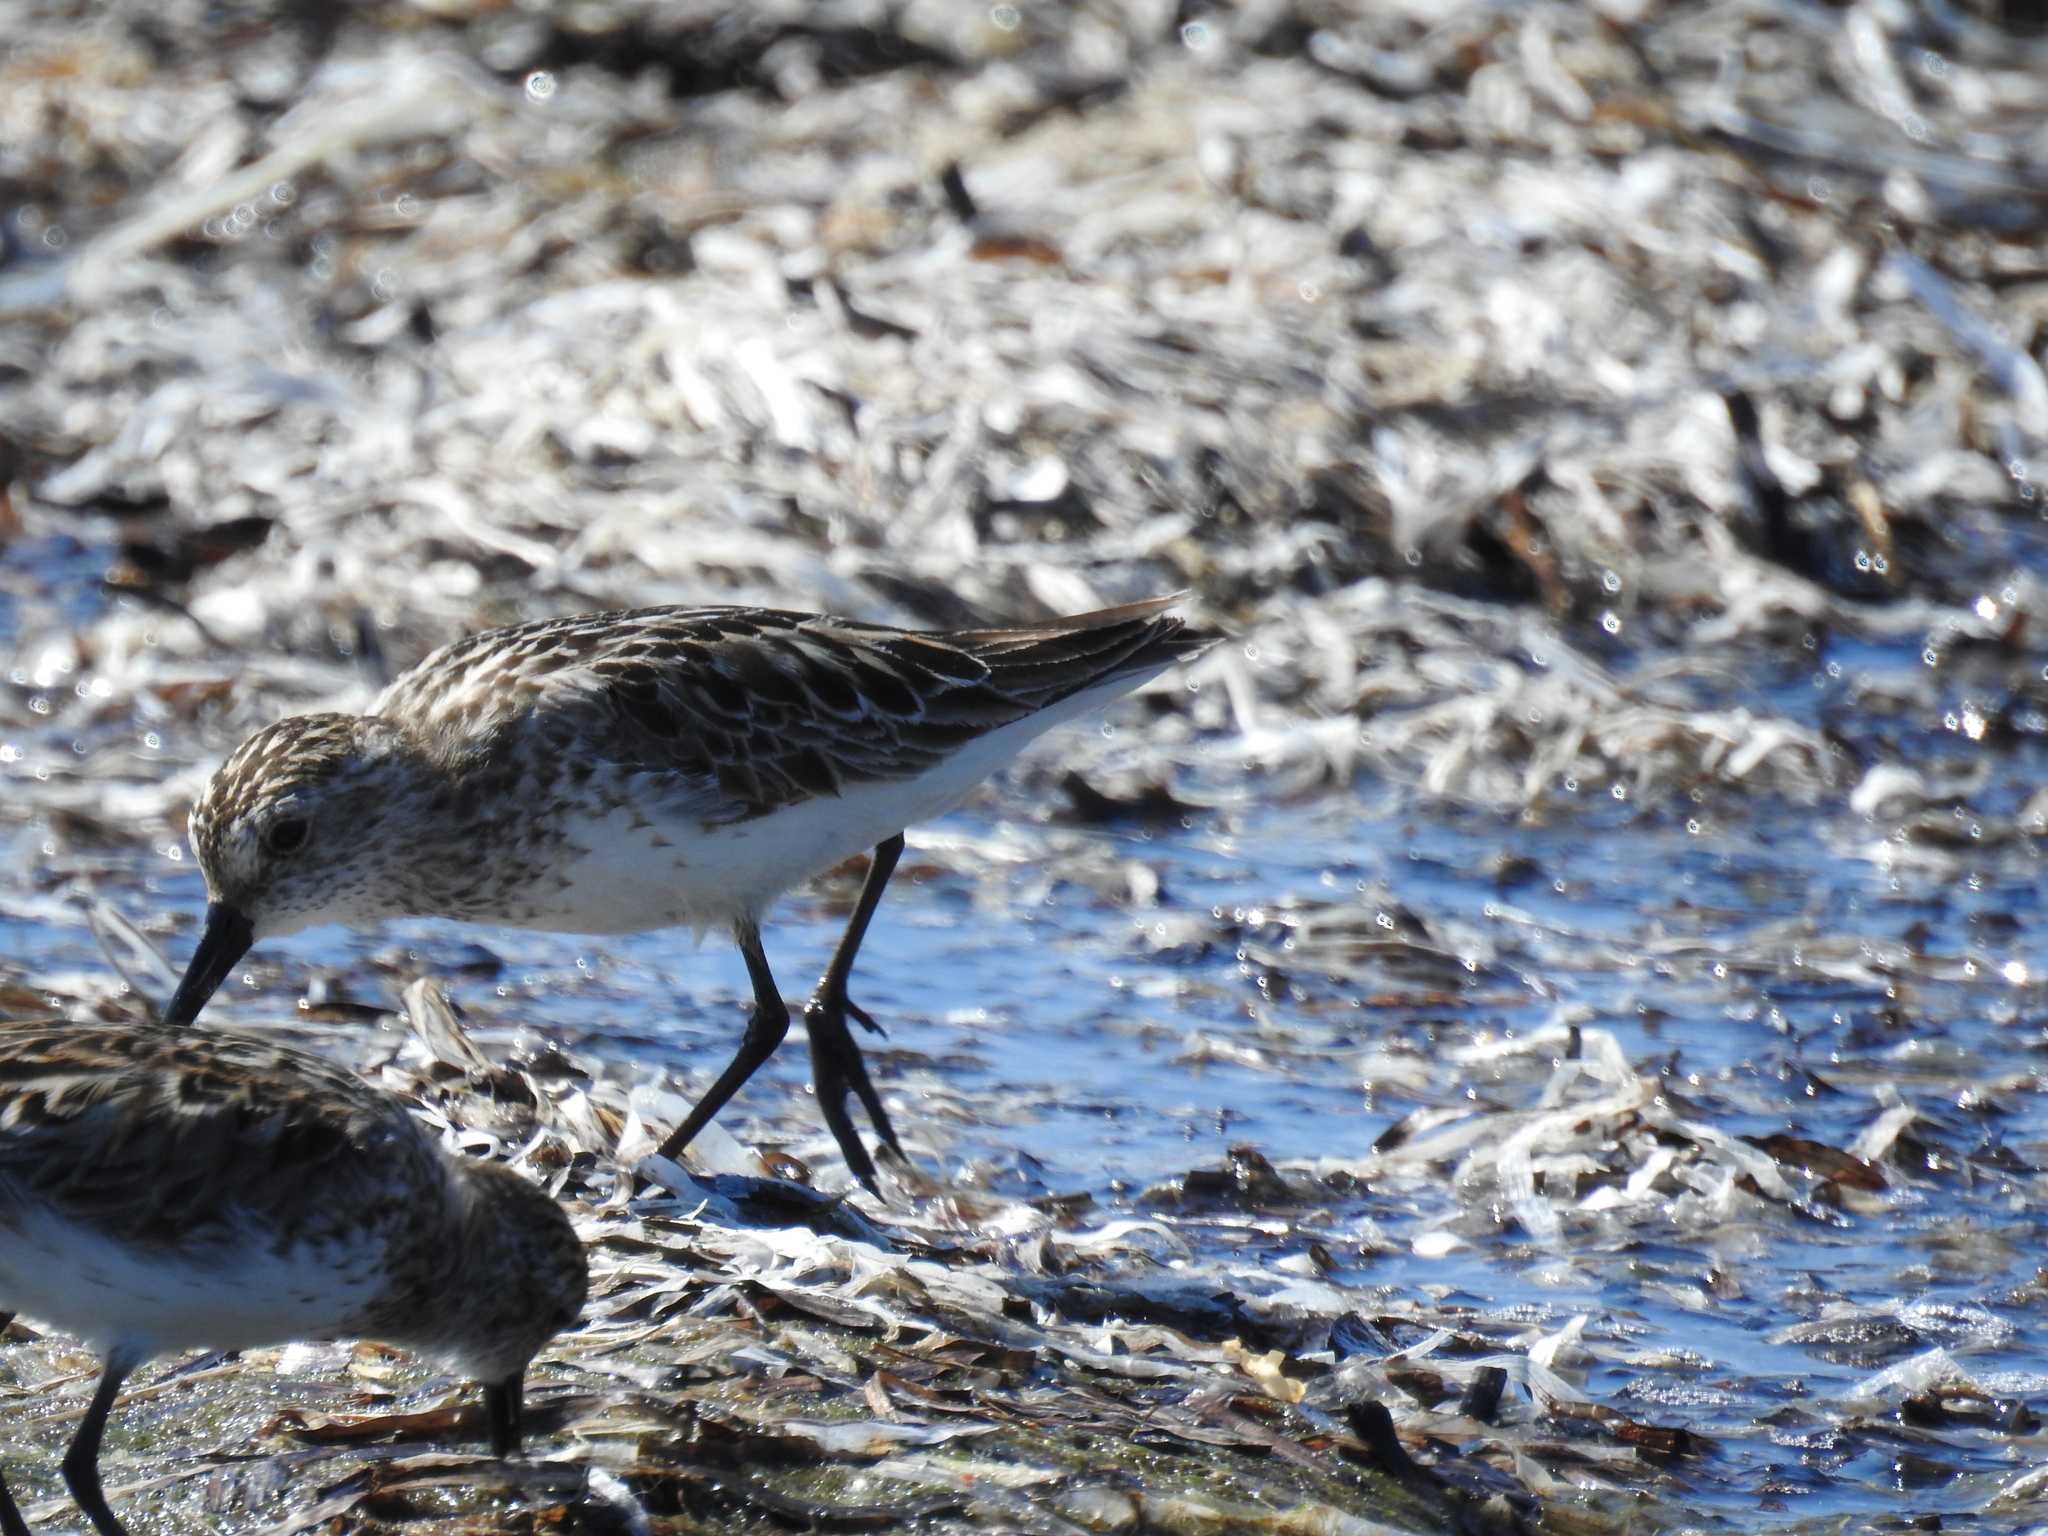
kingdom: Animalia
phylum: Chordata
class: Aves
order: Charadriiformes
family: Scolopacidae
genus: Calidris
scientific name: Calidris pusilla
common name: Semipalmated sandpiper
